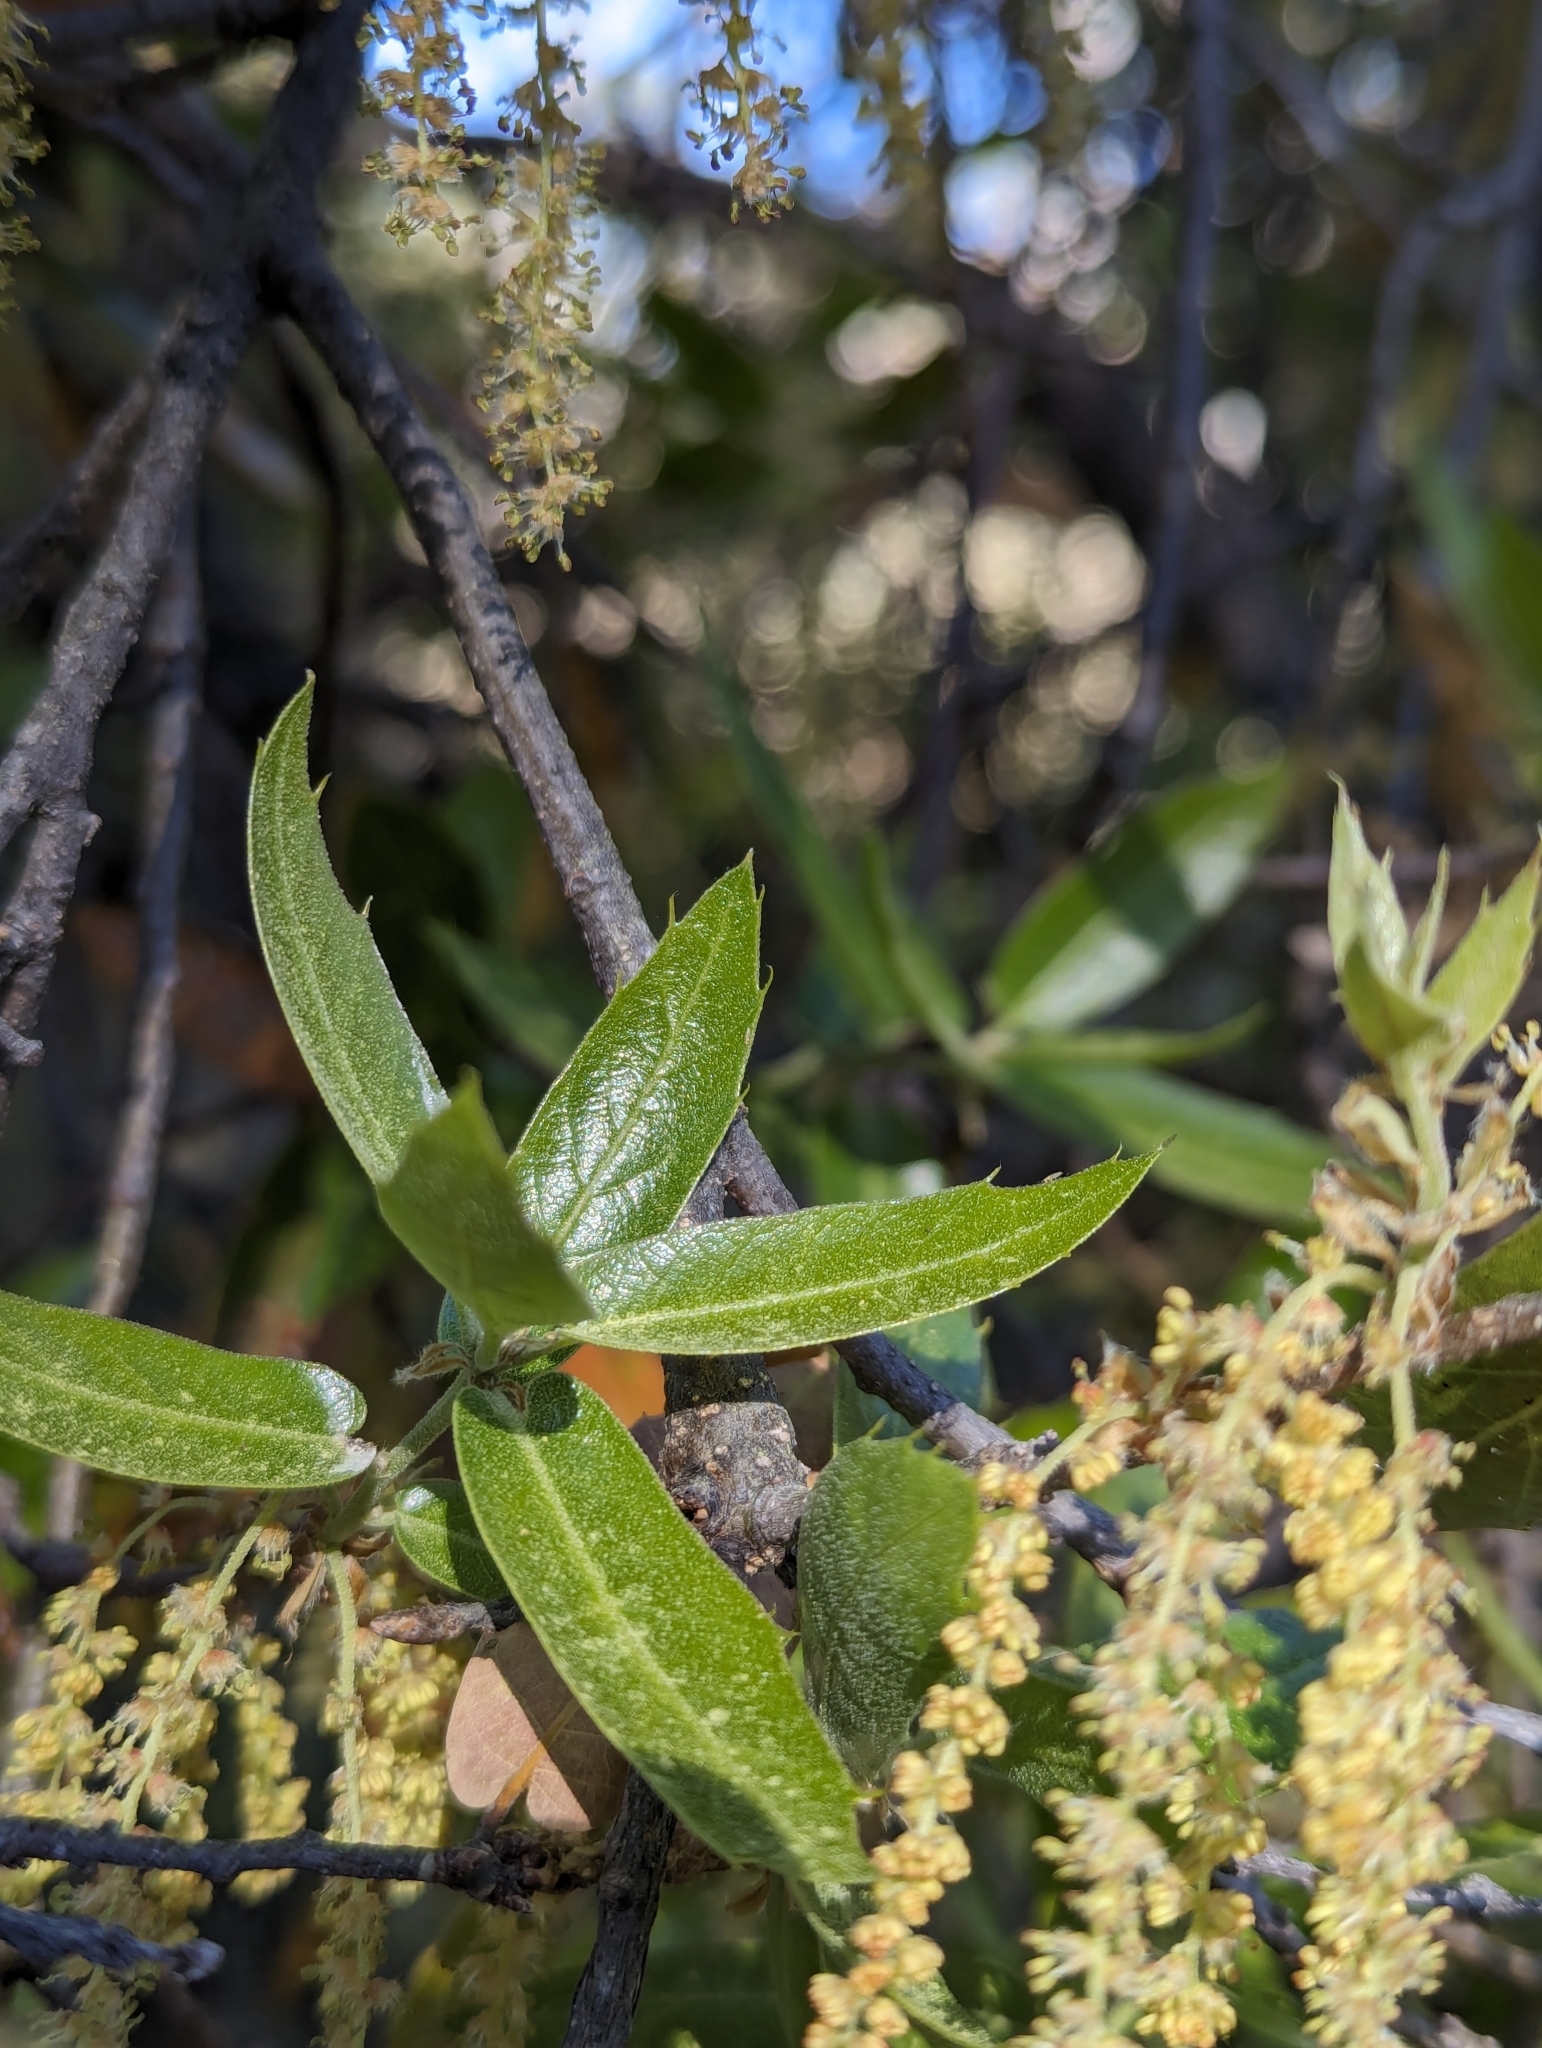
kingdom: Plantae
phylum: Tracheophyta
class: Magnoliopsida
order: Fagales
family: Fagaceae
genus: Quercus
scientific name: Quercus devia
